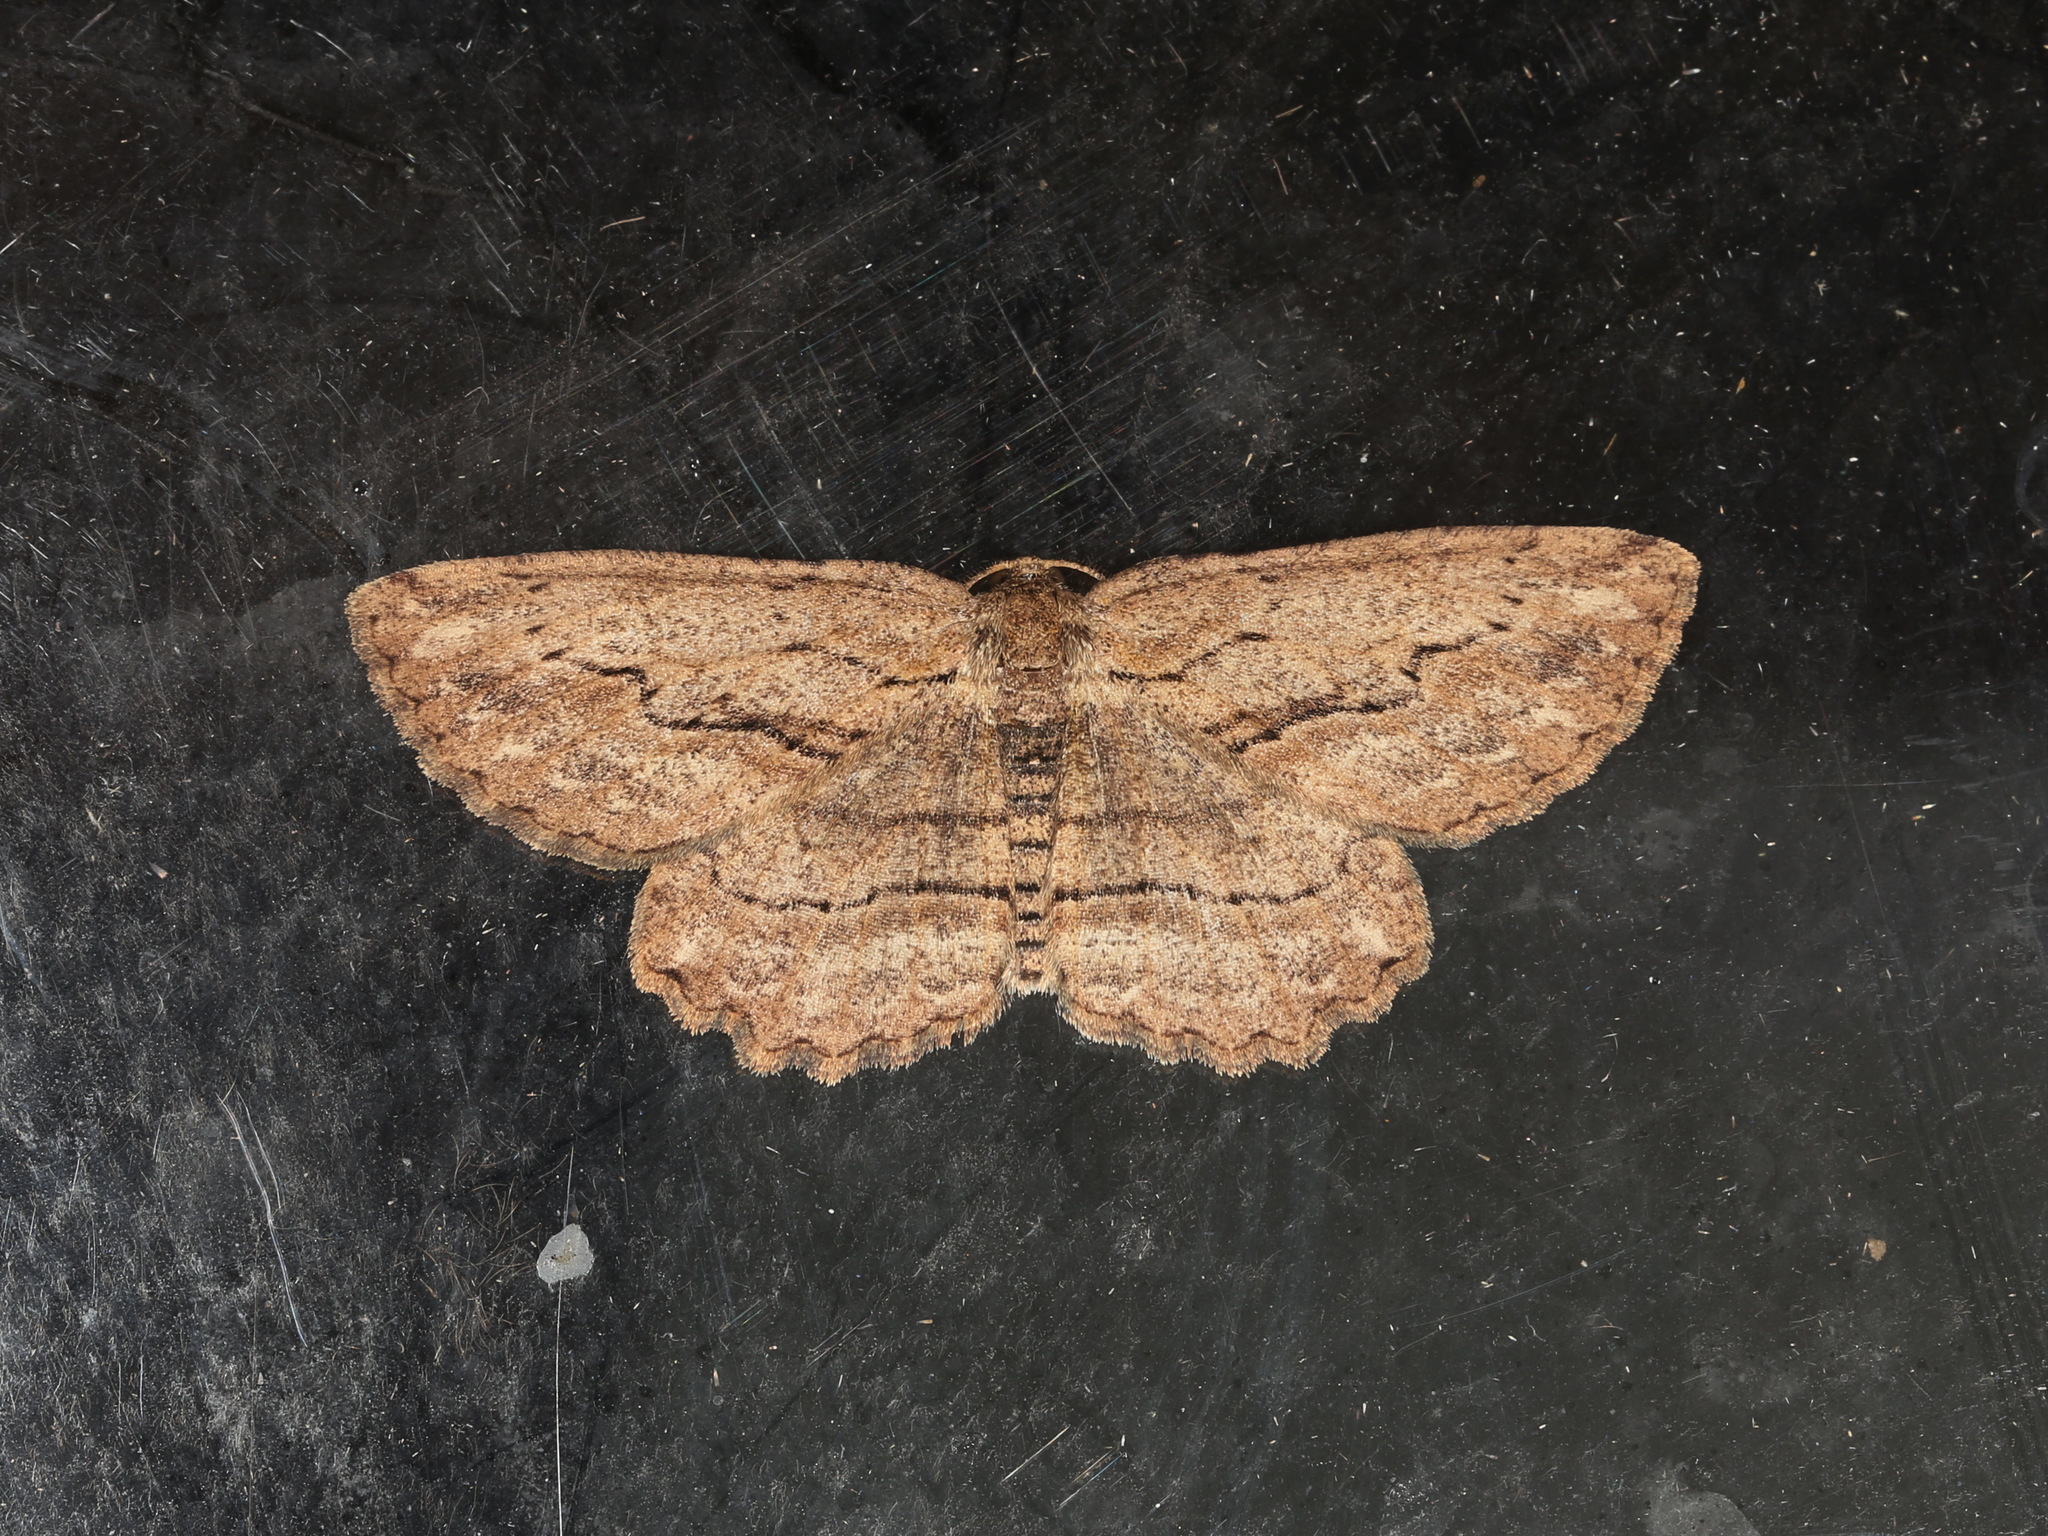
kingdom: Animalia
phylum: Arthropoda
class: Insecta
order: Lepidoptera
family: Geometridae
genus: Ectropis
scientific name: Ectropis excursaria
